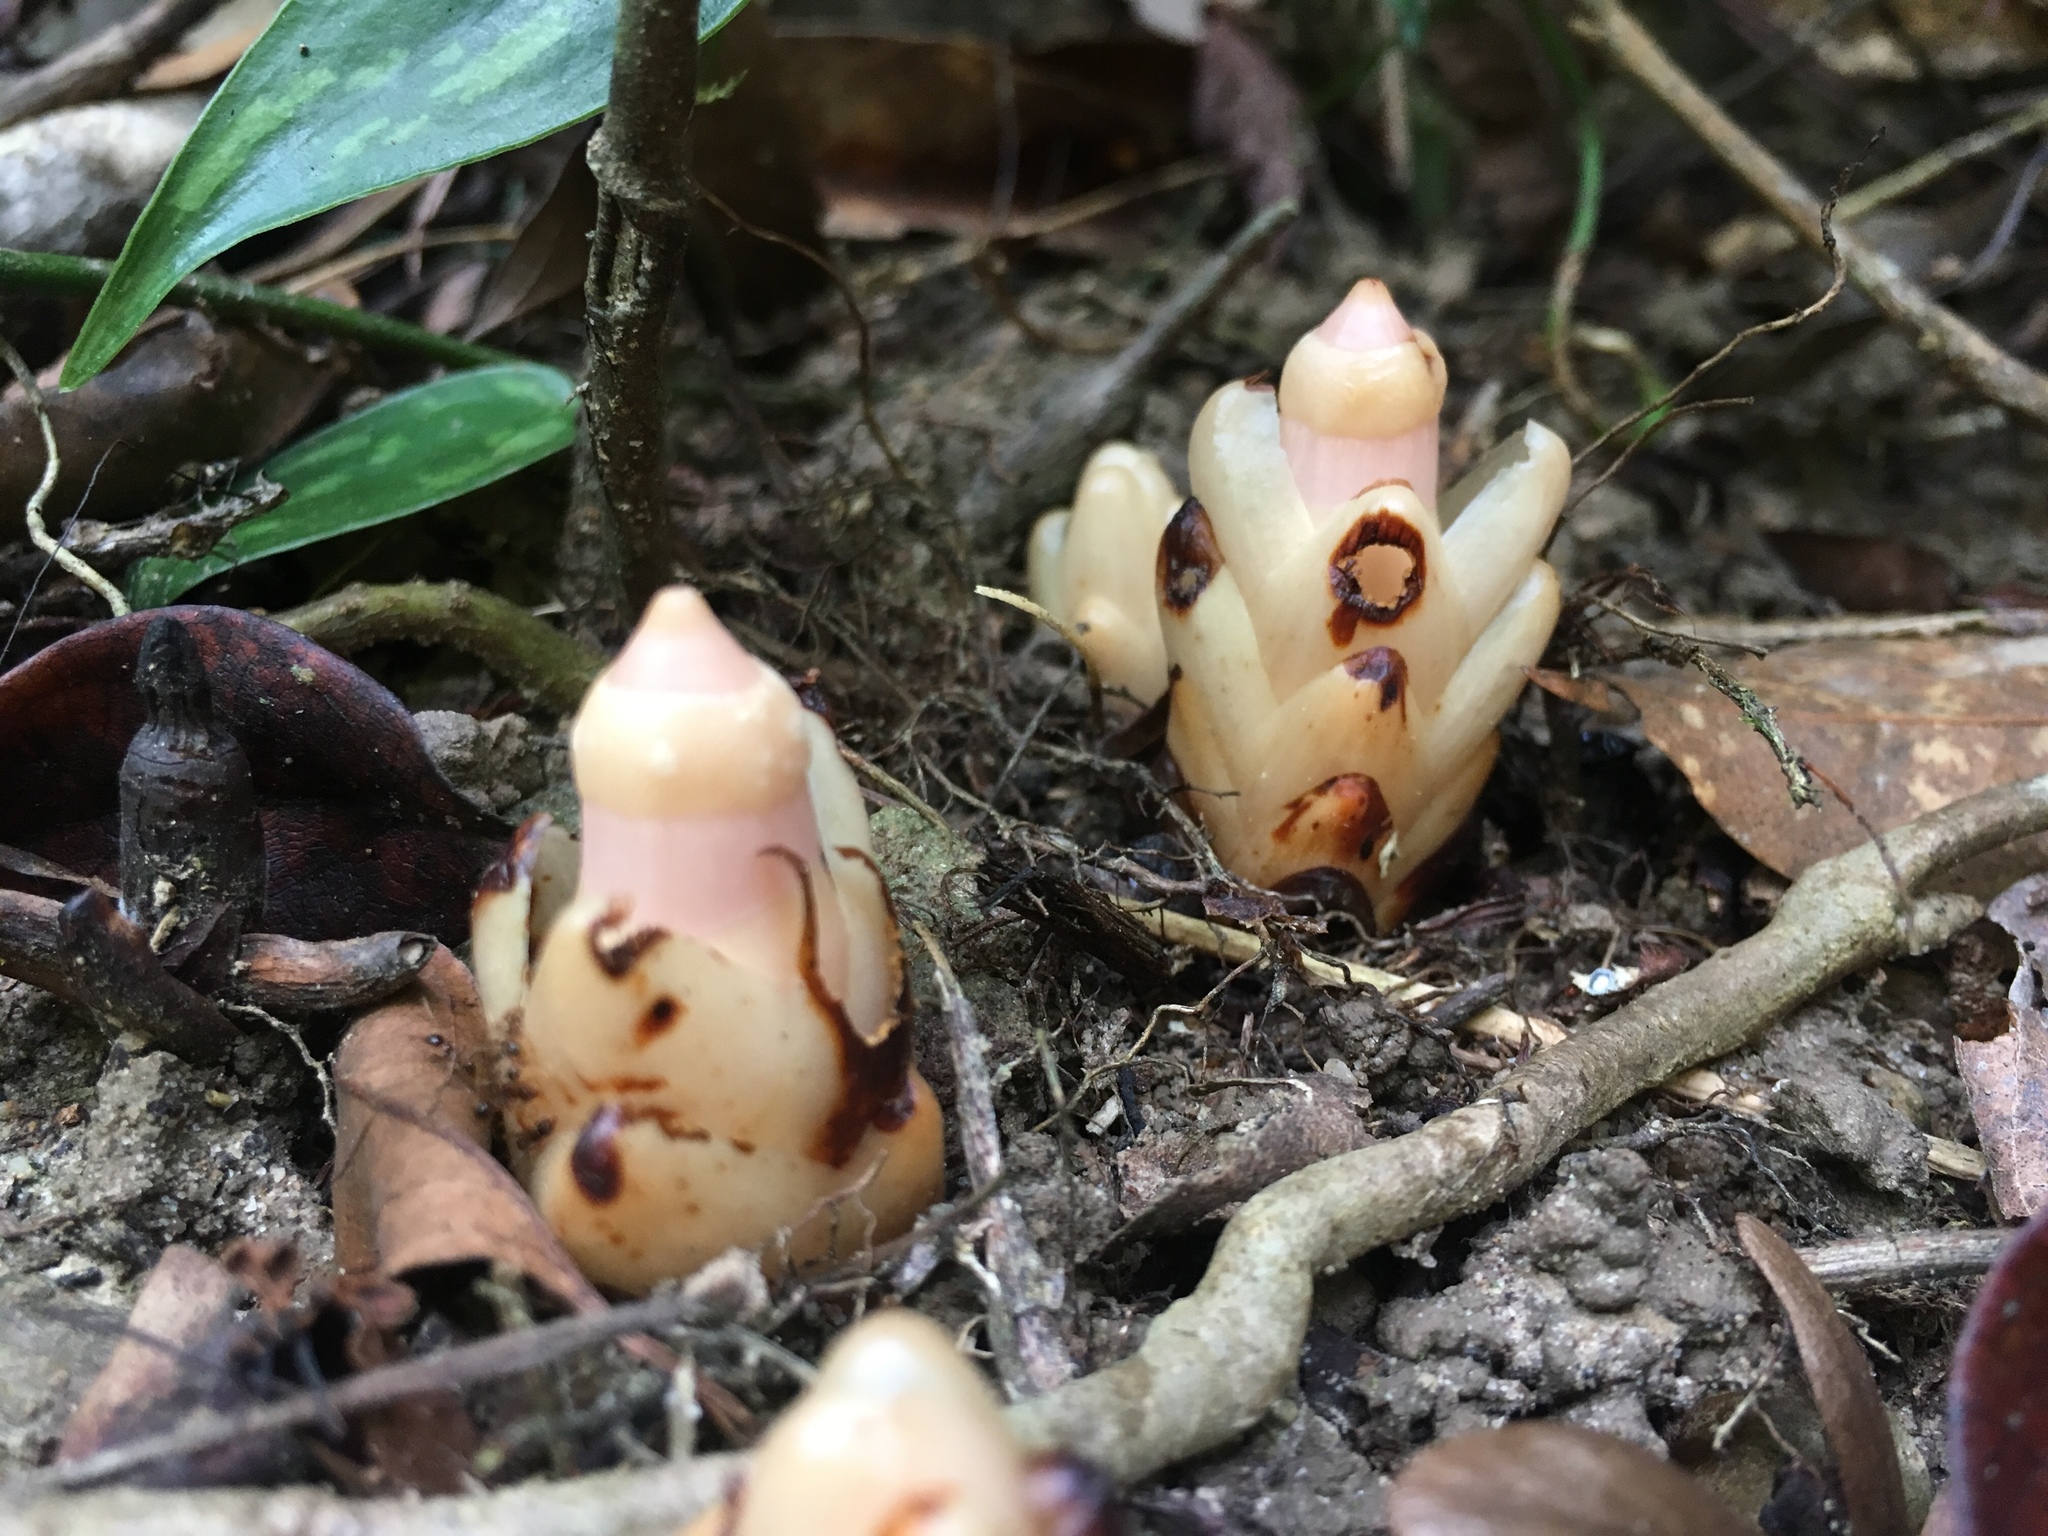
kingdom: Plantae
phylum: Tracheophyta
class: Magnoliopsida
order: Ericales
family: Mitrastemonaceae
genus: Mitrastemon
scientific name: Mitrastemon yamamotoi
